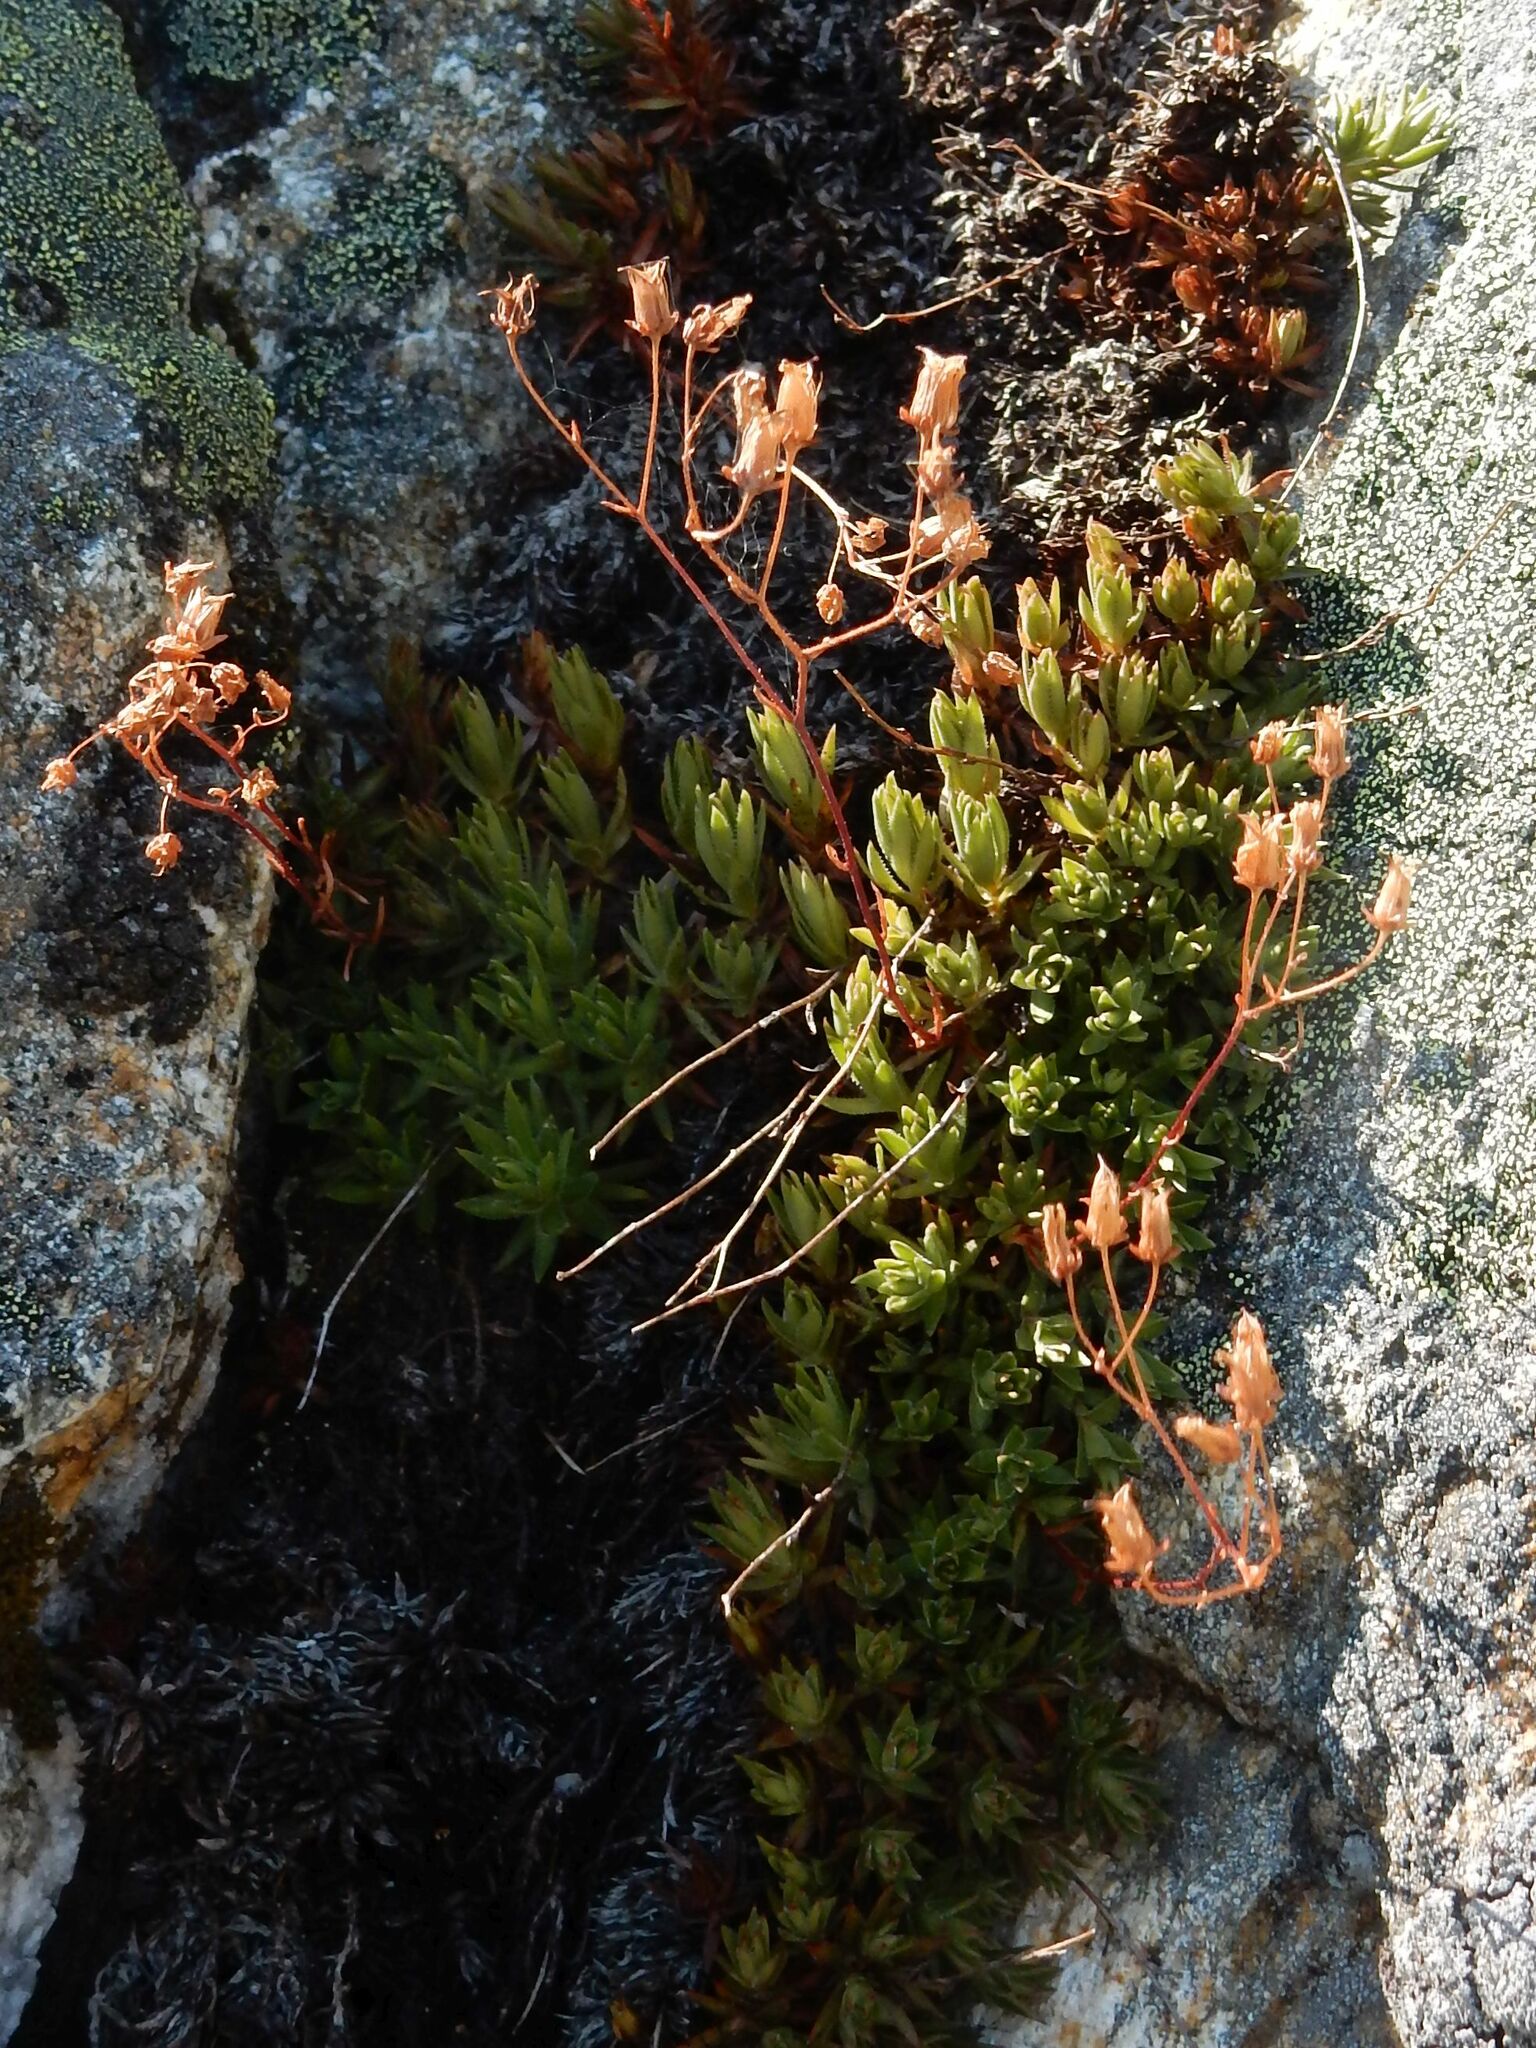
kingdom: Plantae
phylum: Tracheophyta
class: Magnoliopsida
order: Saxifragales
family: Saxifragaceae
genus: Saxifraga
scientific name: Saxifraga bronchialis
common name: Matted saxifrage
